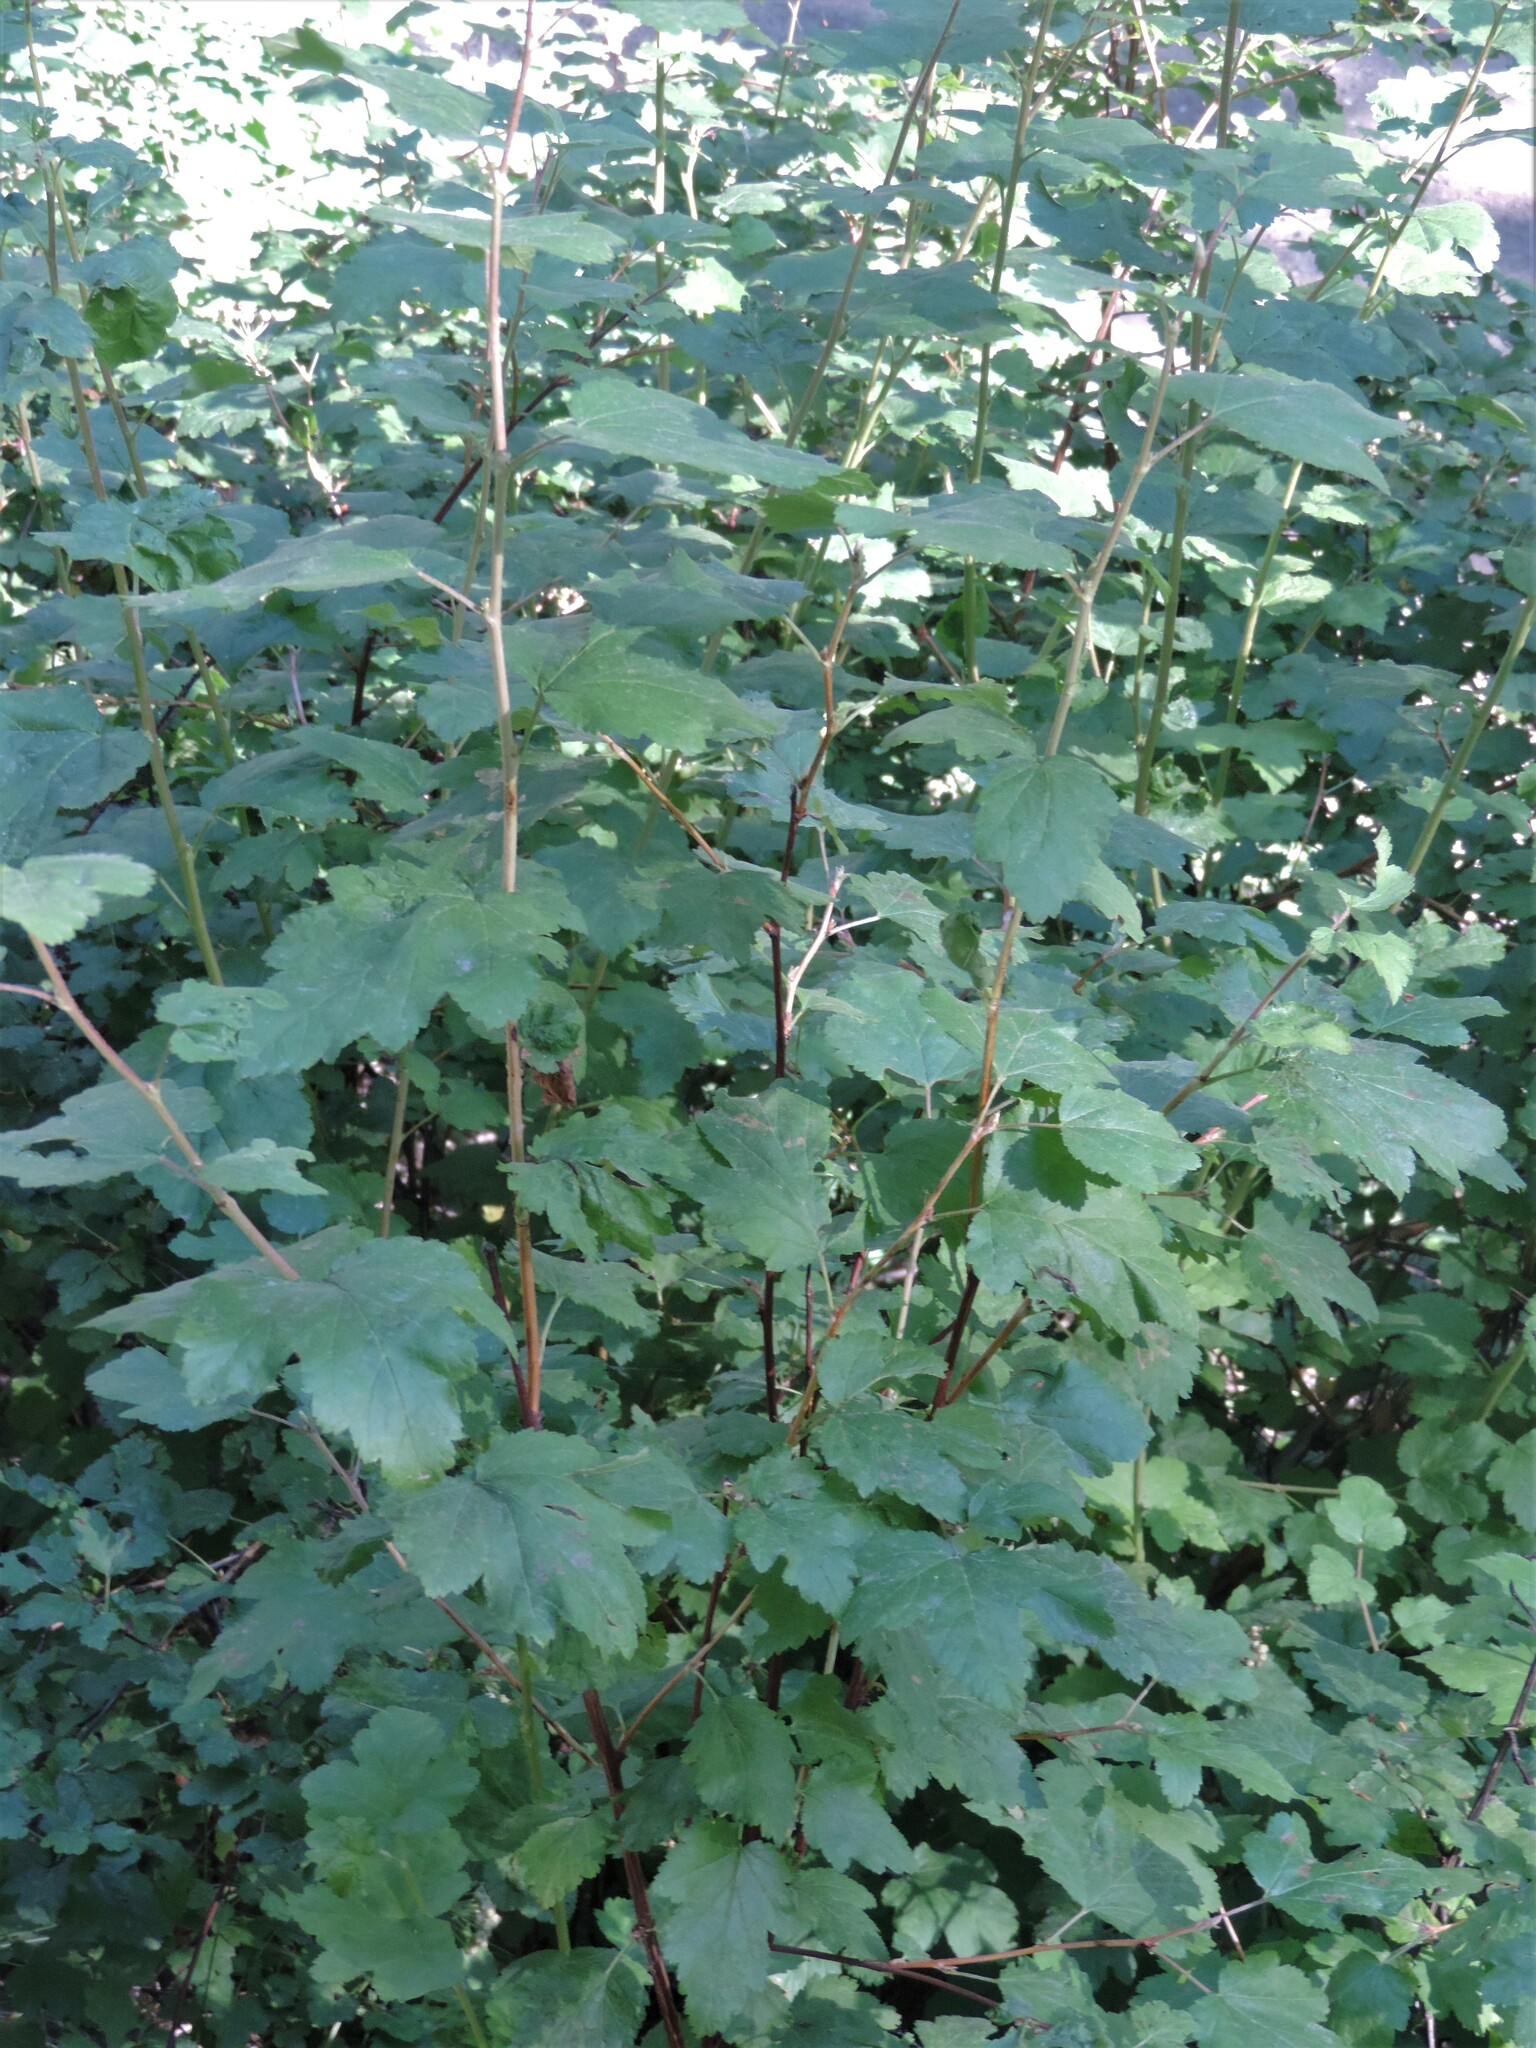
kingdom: Plantae
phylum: Tracheophyta
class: Magnoliopsida
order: Rosales
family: Rosaceae
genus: Physocarpus
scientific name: Physocarpus malvaceus
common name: Mallow ninebark
